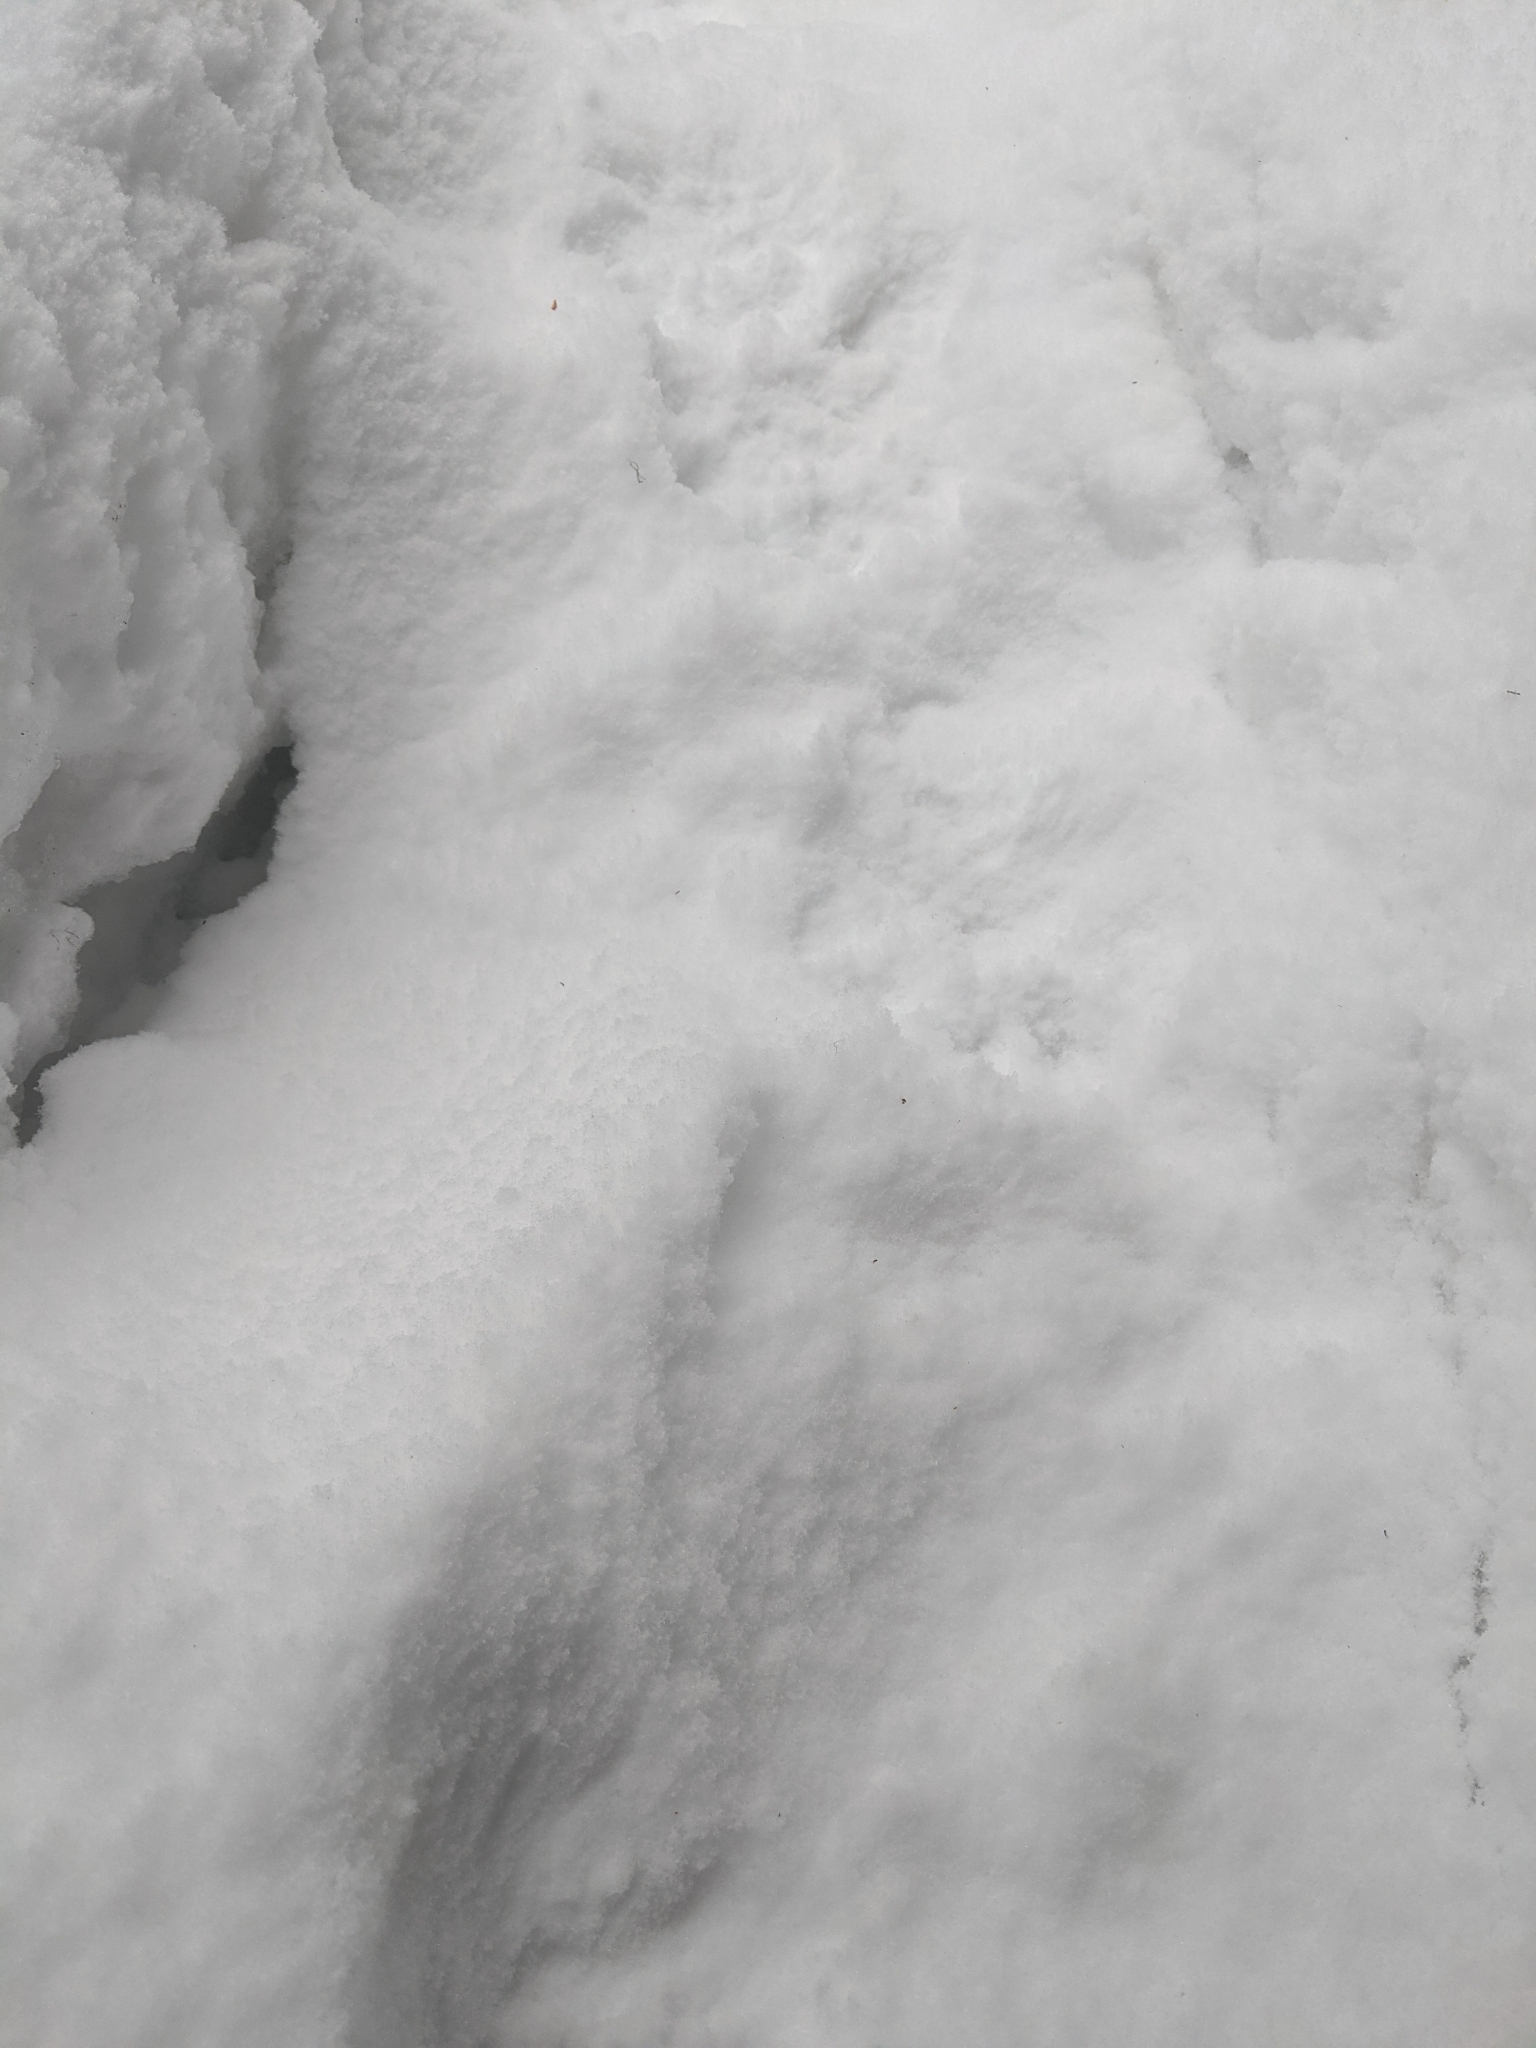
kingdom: Animalia
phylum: Chordata
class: Mammalia
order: Carnivora
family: Mustelidae
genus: Gulo
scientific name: Gulo gulo
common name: Wolverine
